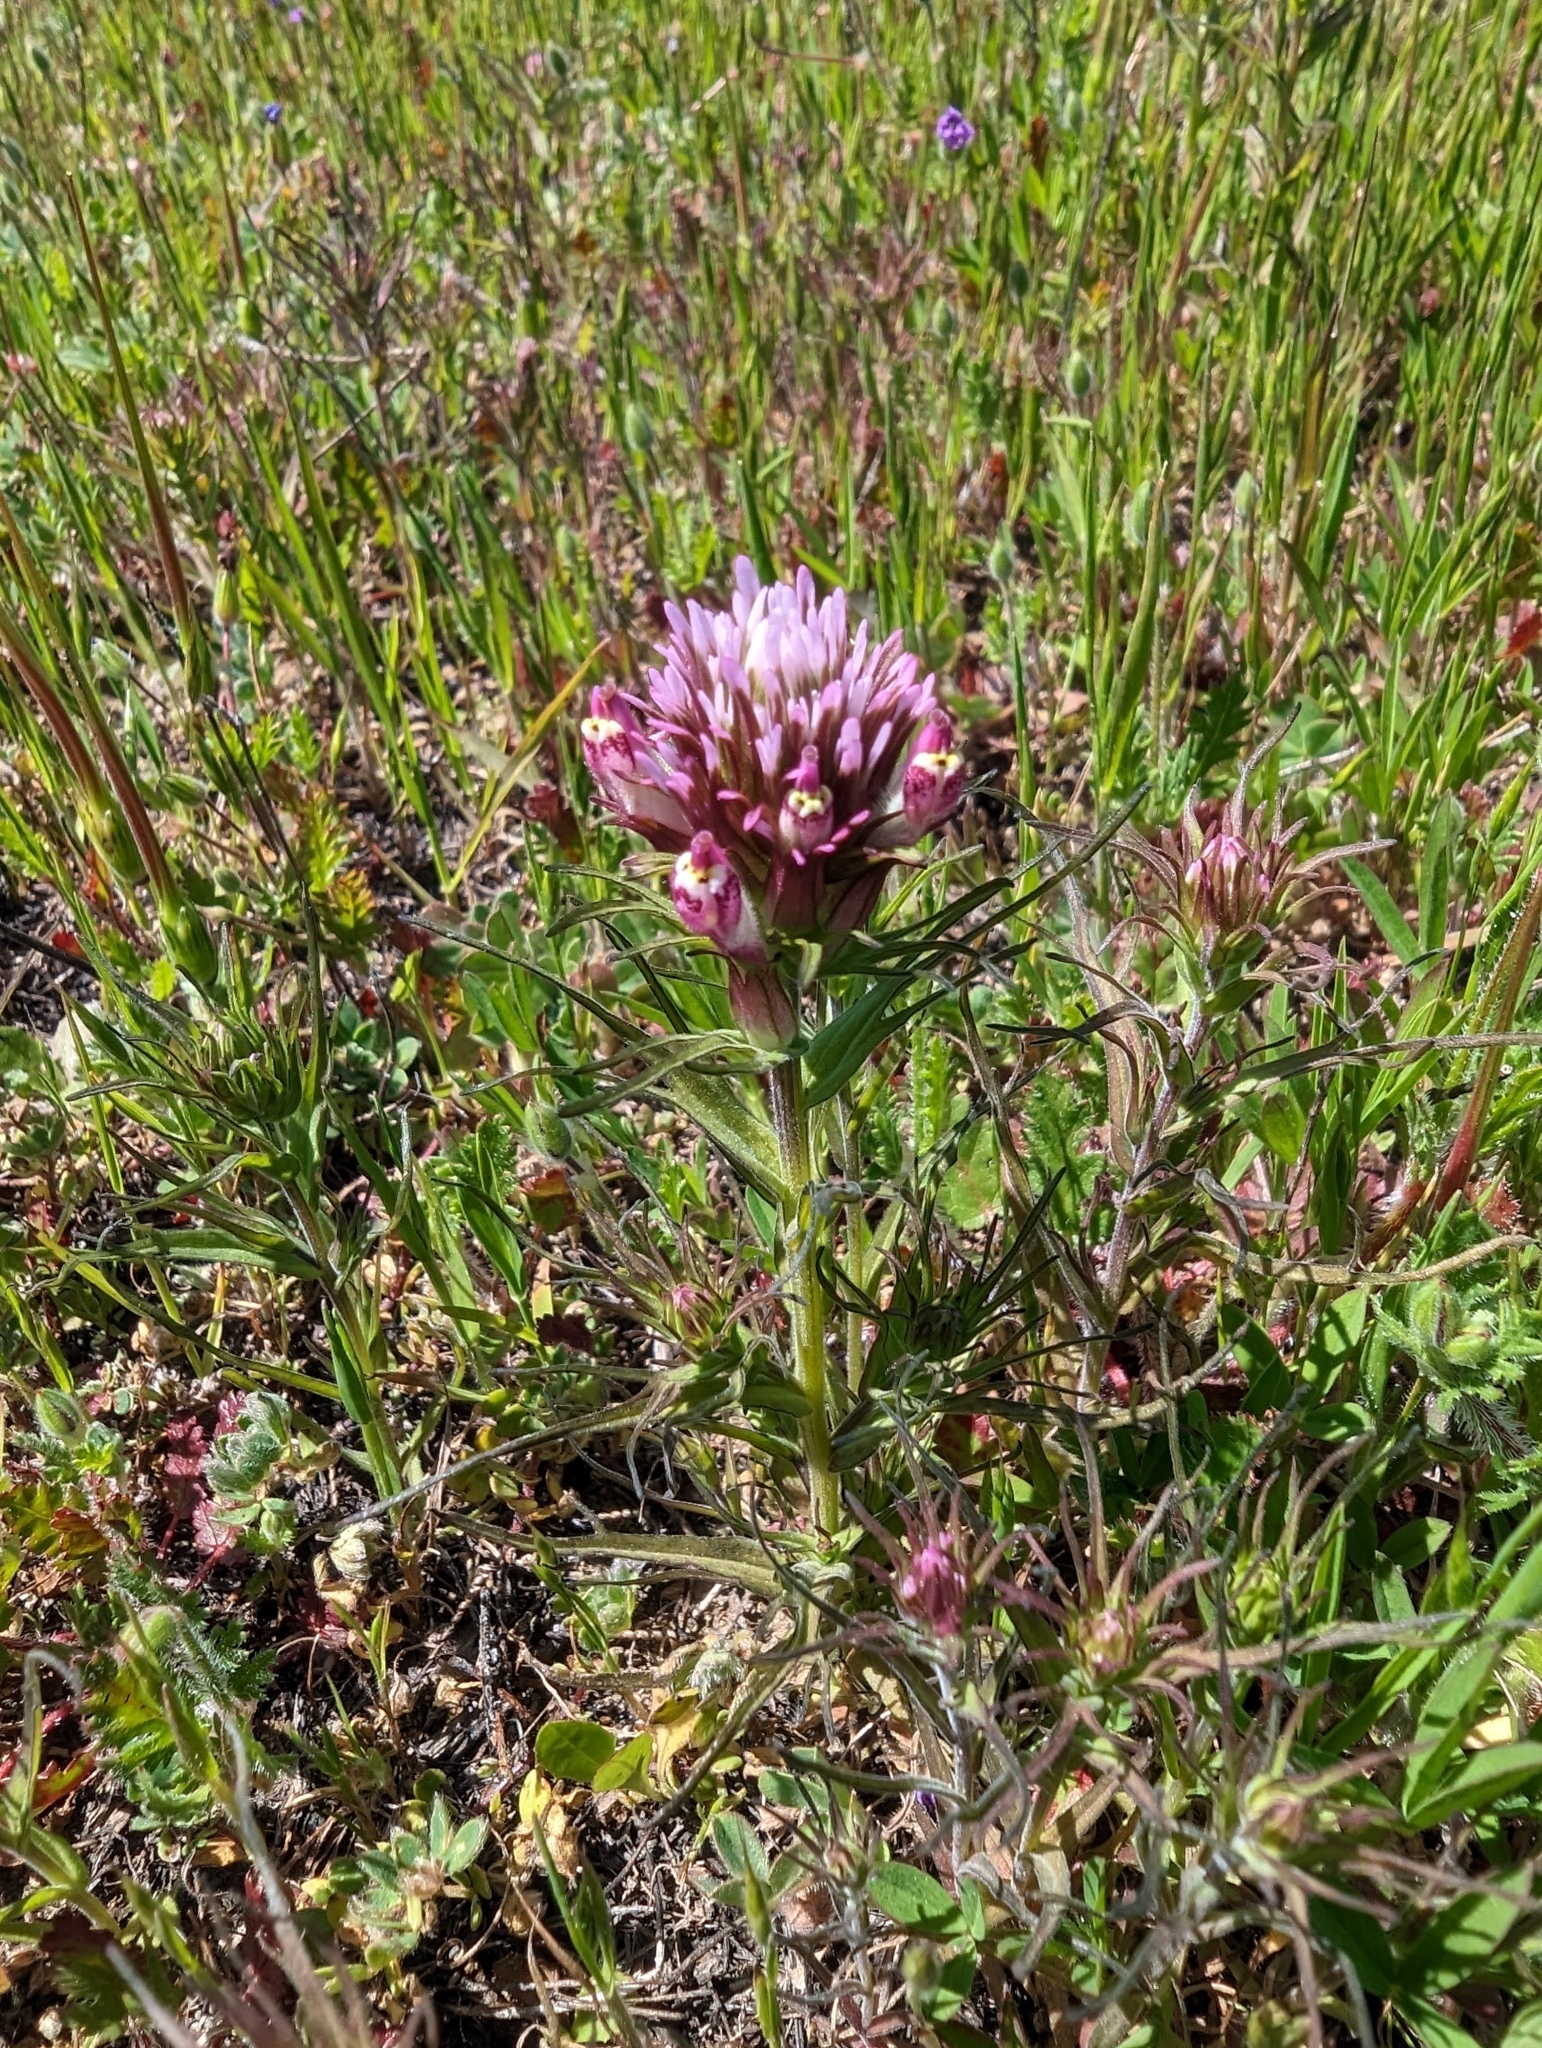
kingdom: Plantae
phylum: Tracheophyta
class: Magnoliopsida
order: Lamiales
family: Orobanchaceae
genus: Castilleja
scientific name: Castilleja densiflora
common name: Dense-flower indian paintbrush
